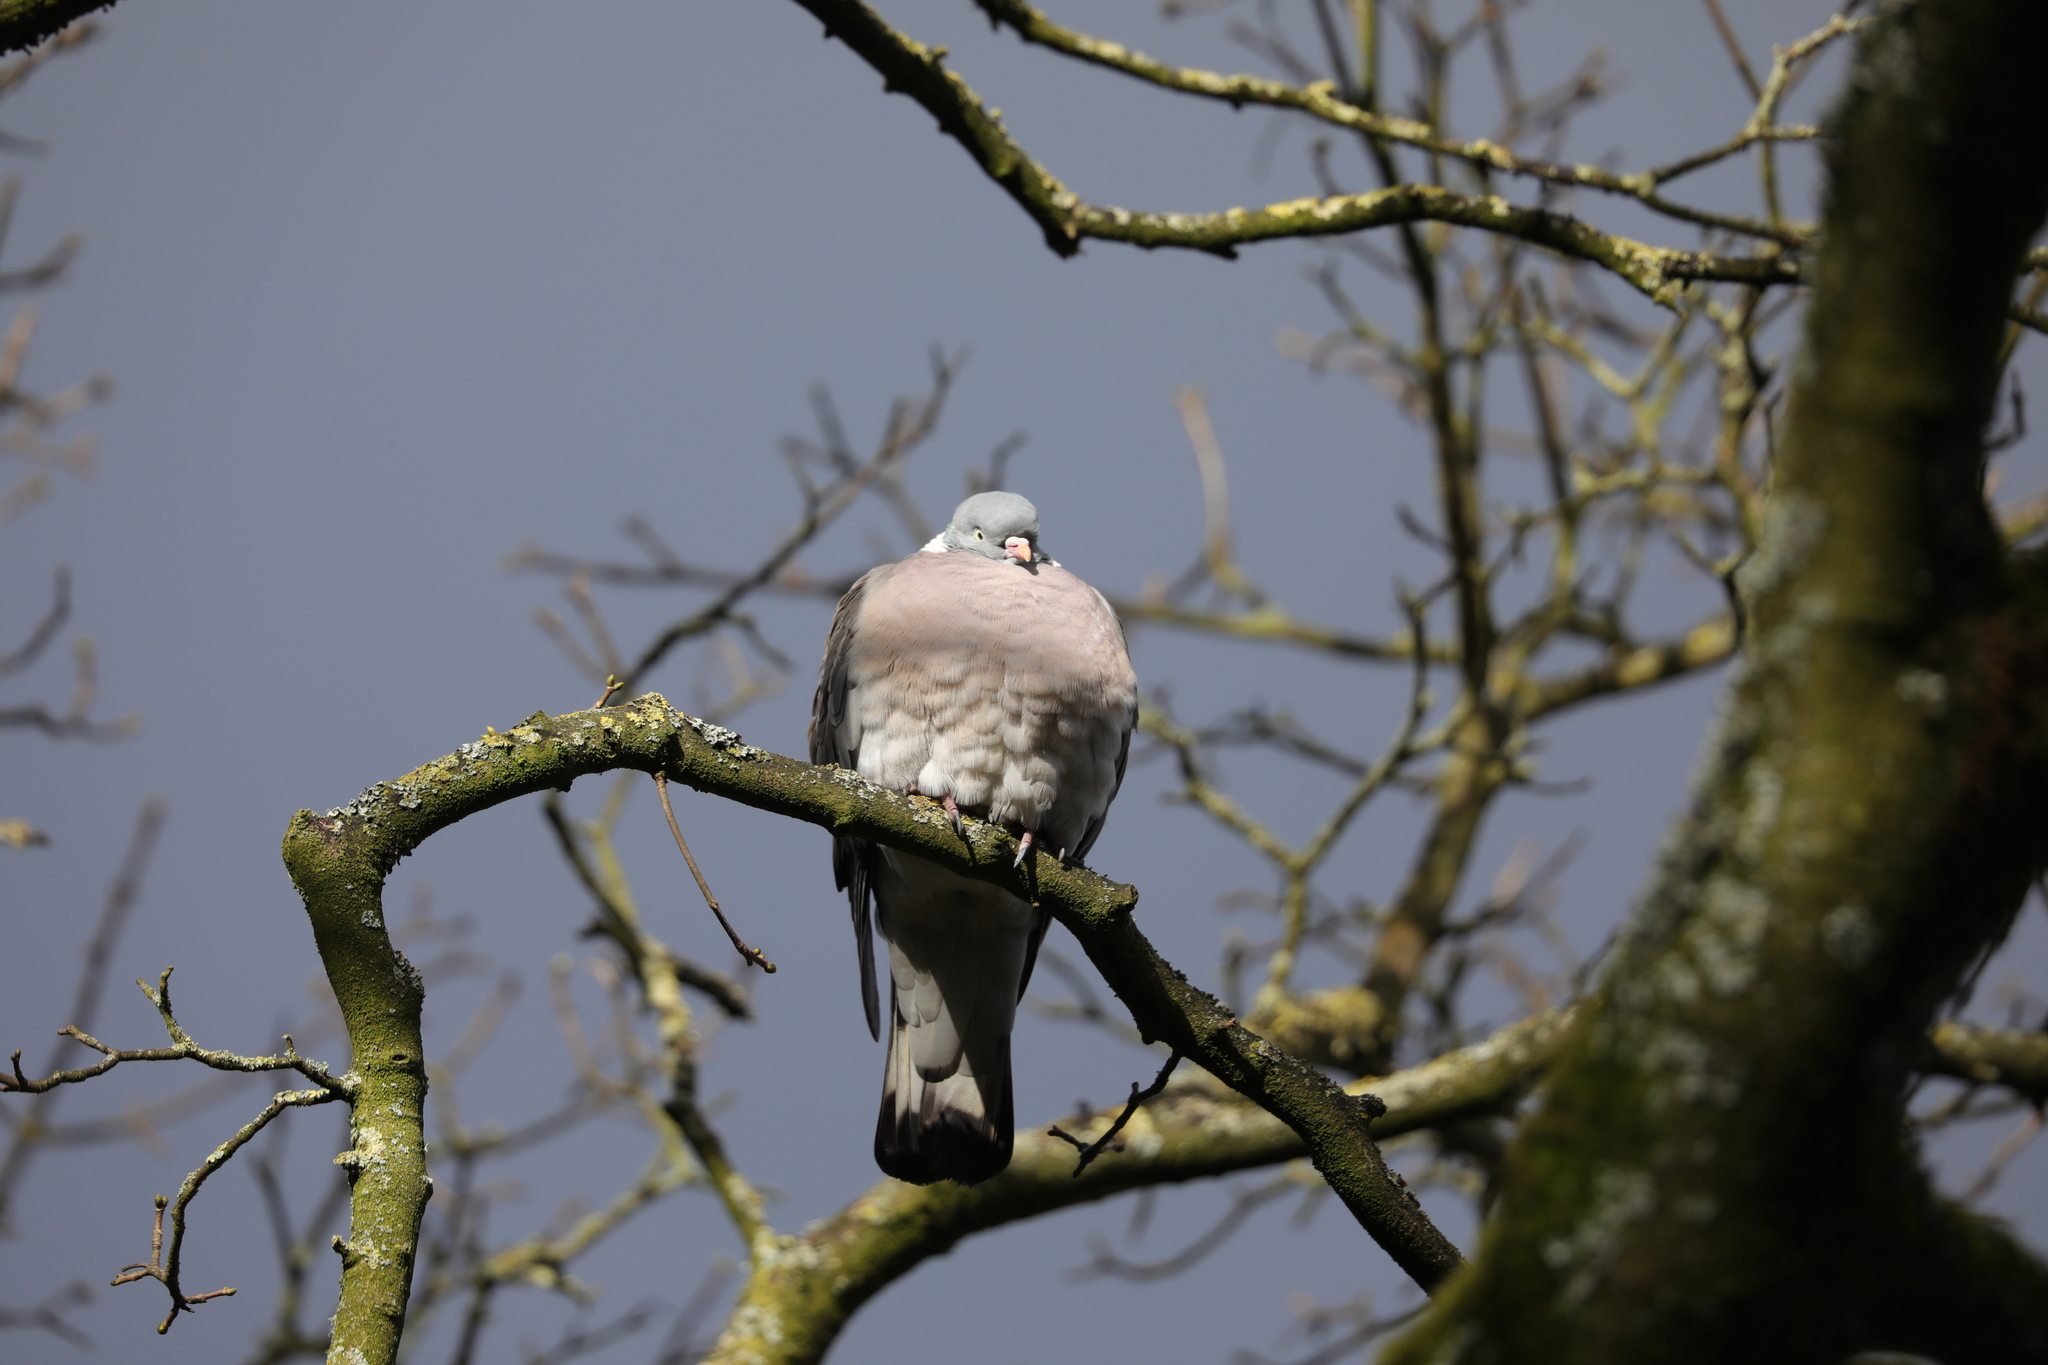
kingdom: Animalia
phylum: Chordata
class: Aves
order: Columbiformes
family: Columbidae
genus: Columba
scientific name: Columba palumbus
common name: Common wood pigeon
